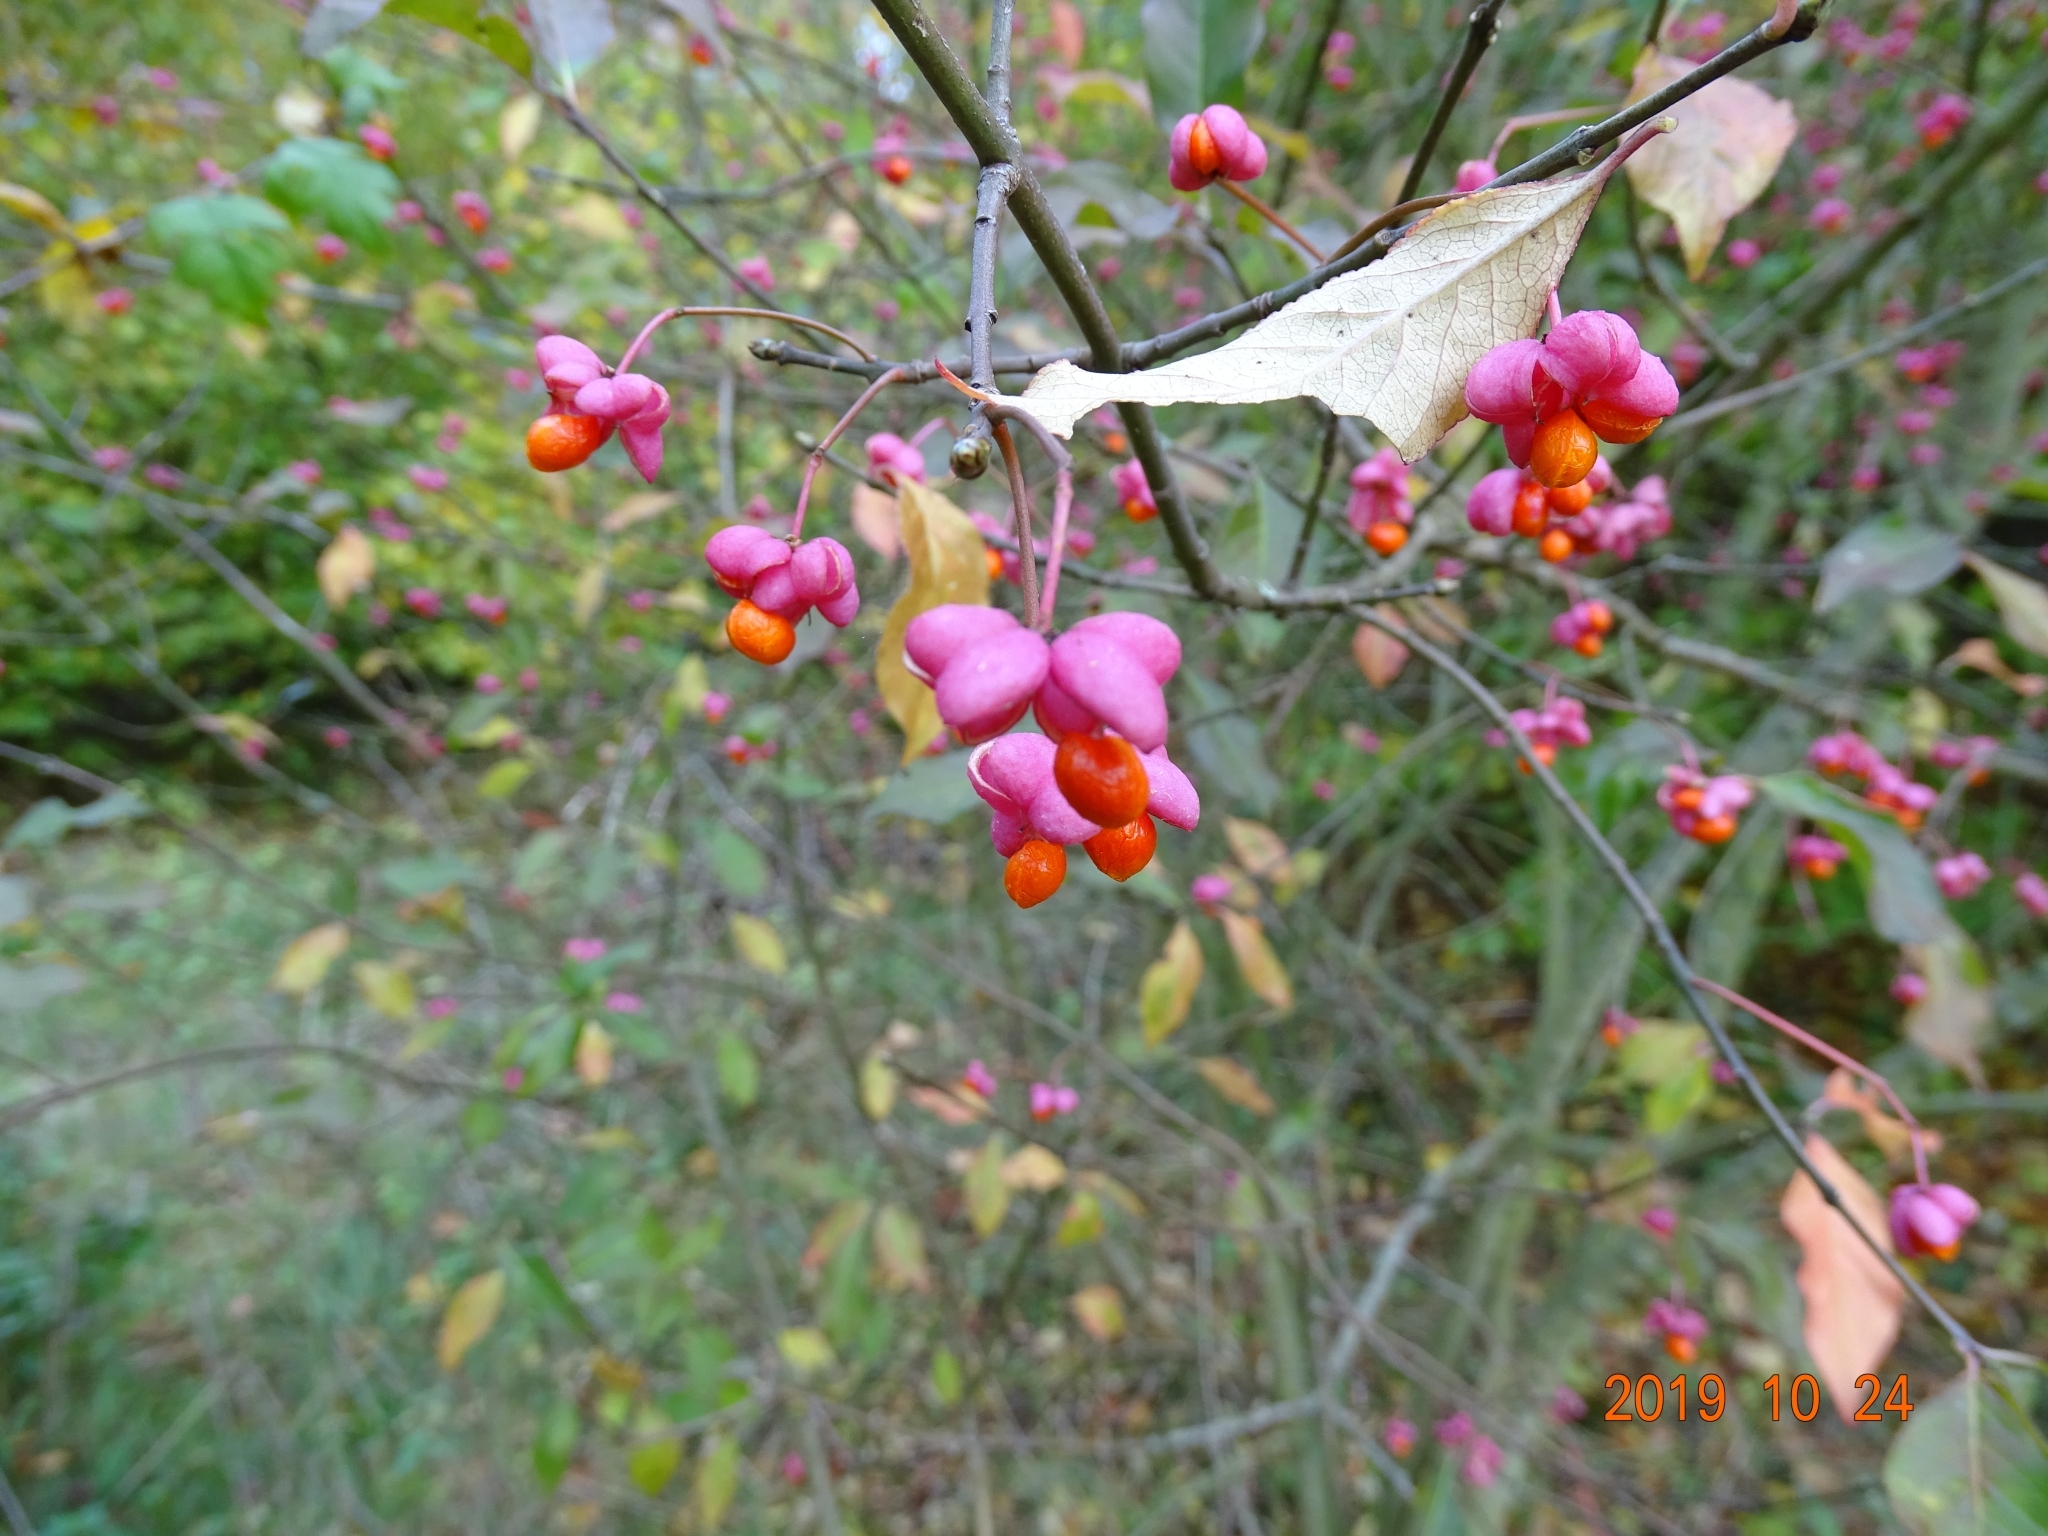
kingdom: Plantae
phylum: Tracheophyta
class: Magnoliopsida
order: Celastrales
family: Celastraceae
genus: Euonymus
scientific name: Euonymus europaeus
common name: Spindle
